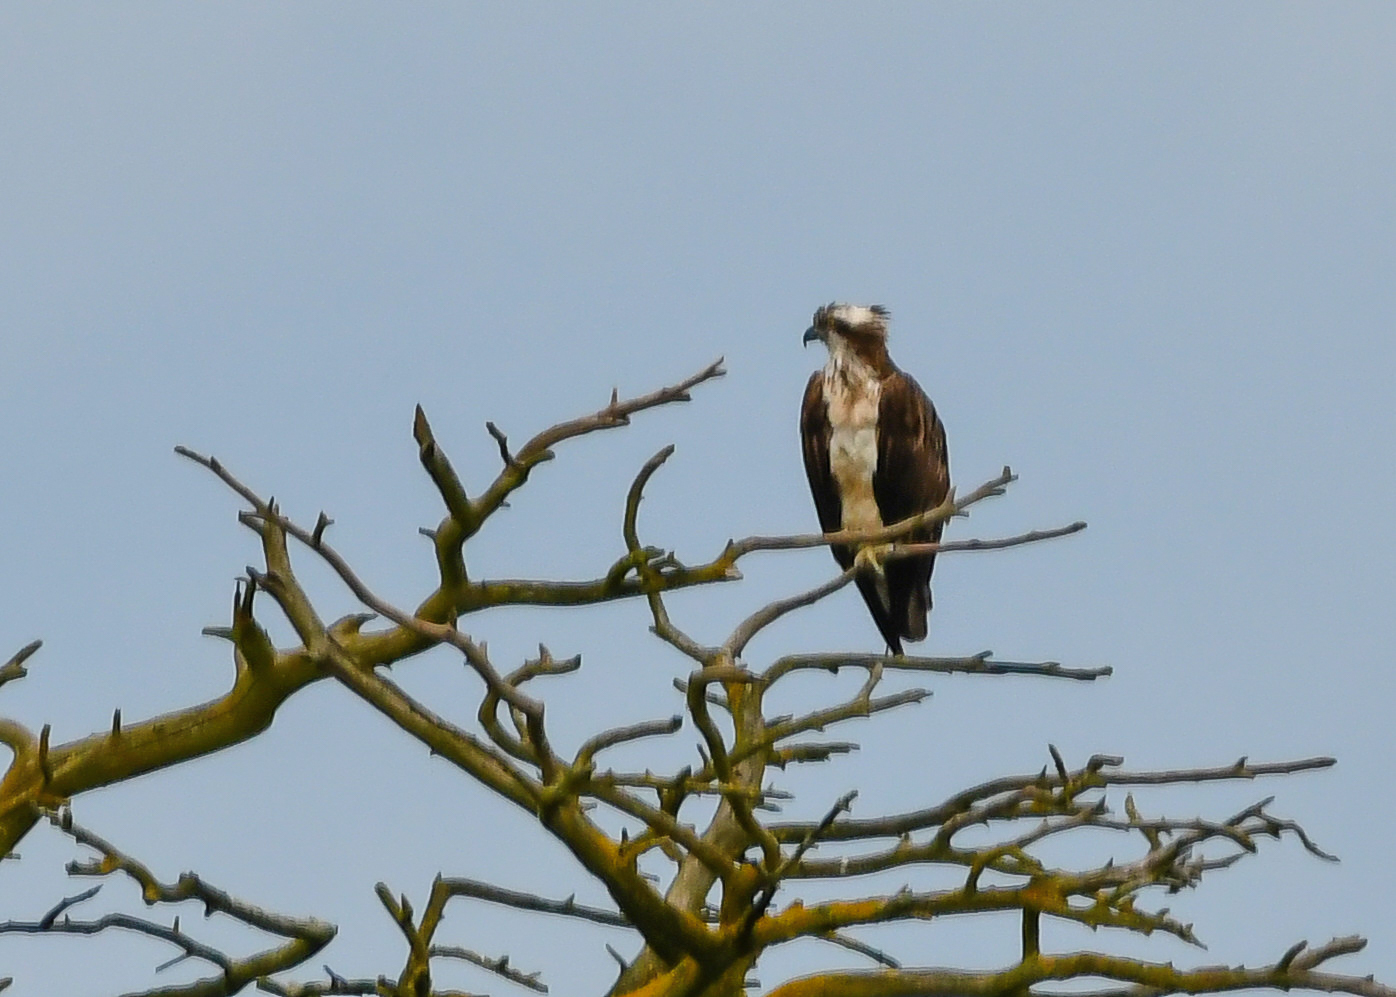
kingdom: Animalia
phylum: Chordata
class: Aves
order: Accipitriformes
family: Pandionidae
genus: Pandion
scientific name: Pandion haliaetus
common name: Osprey
